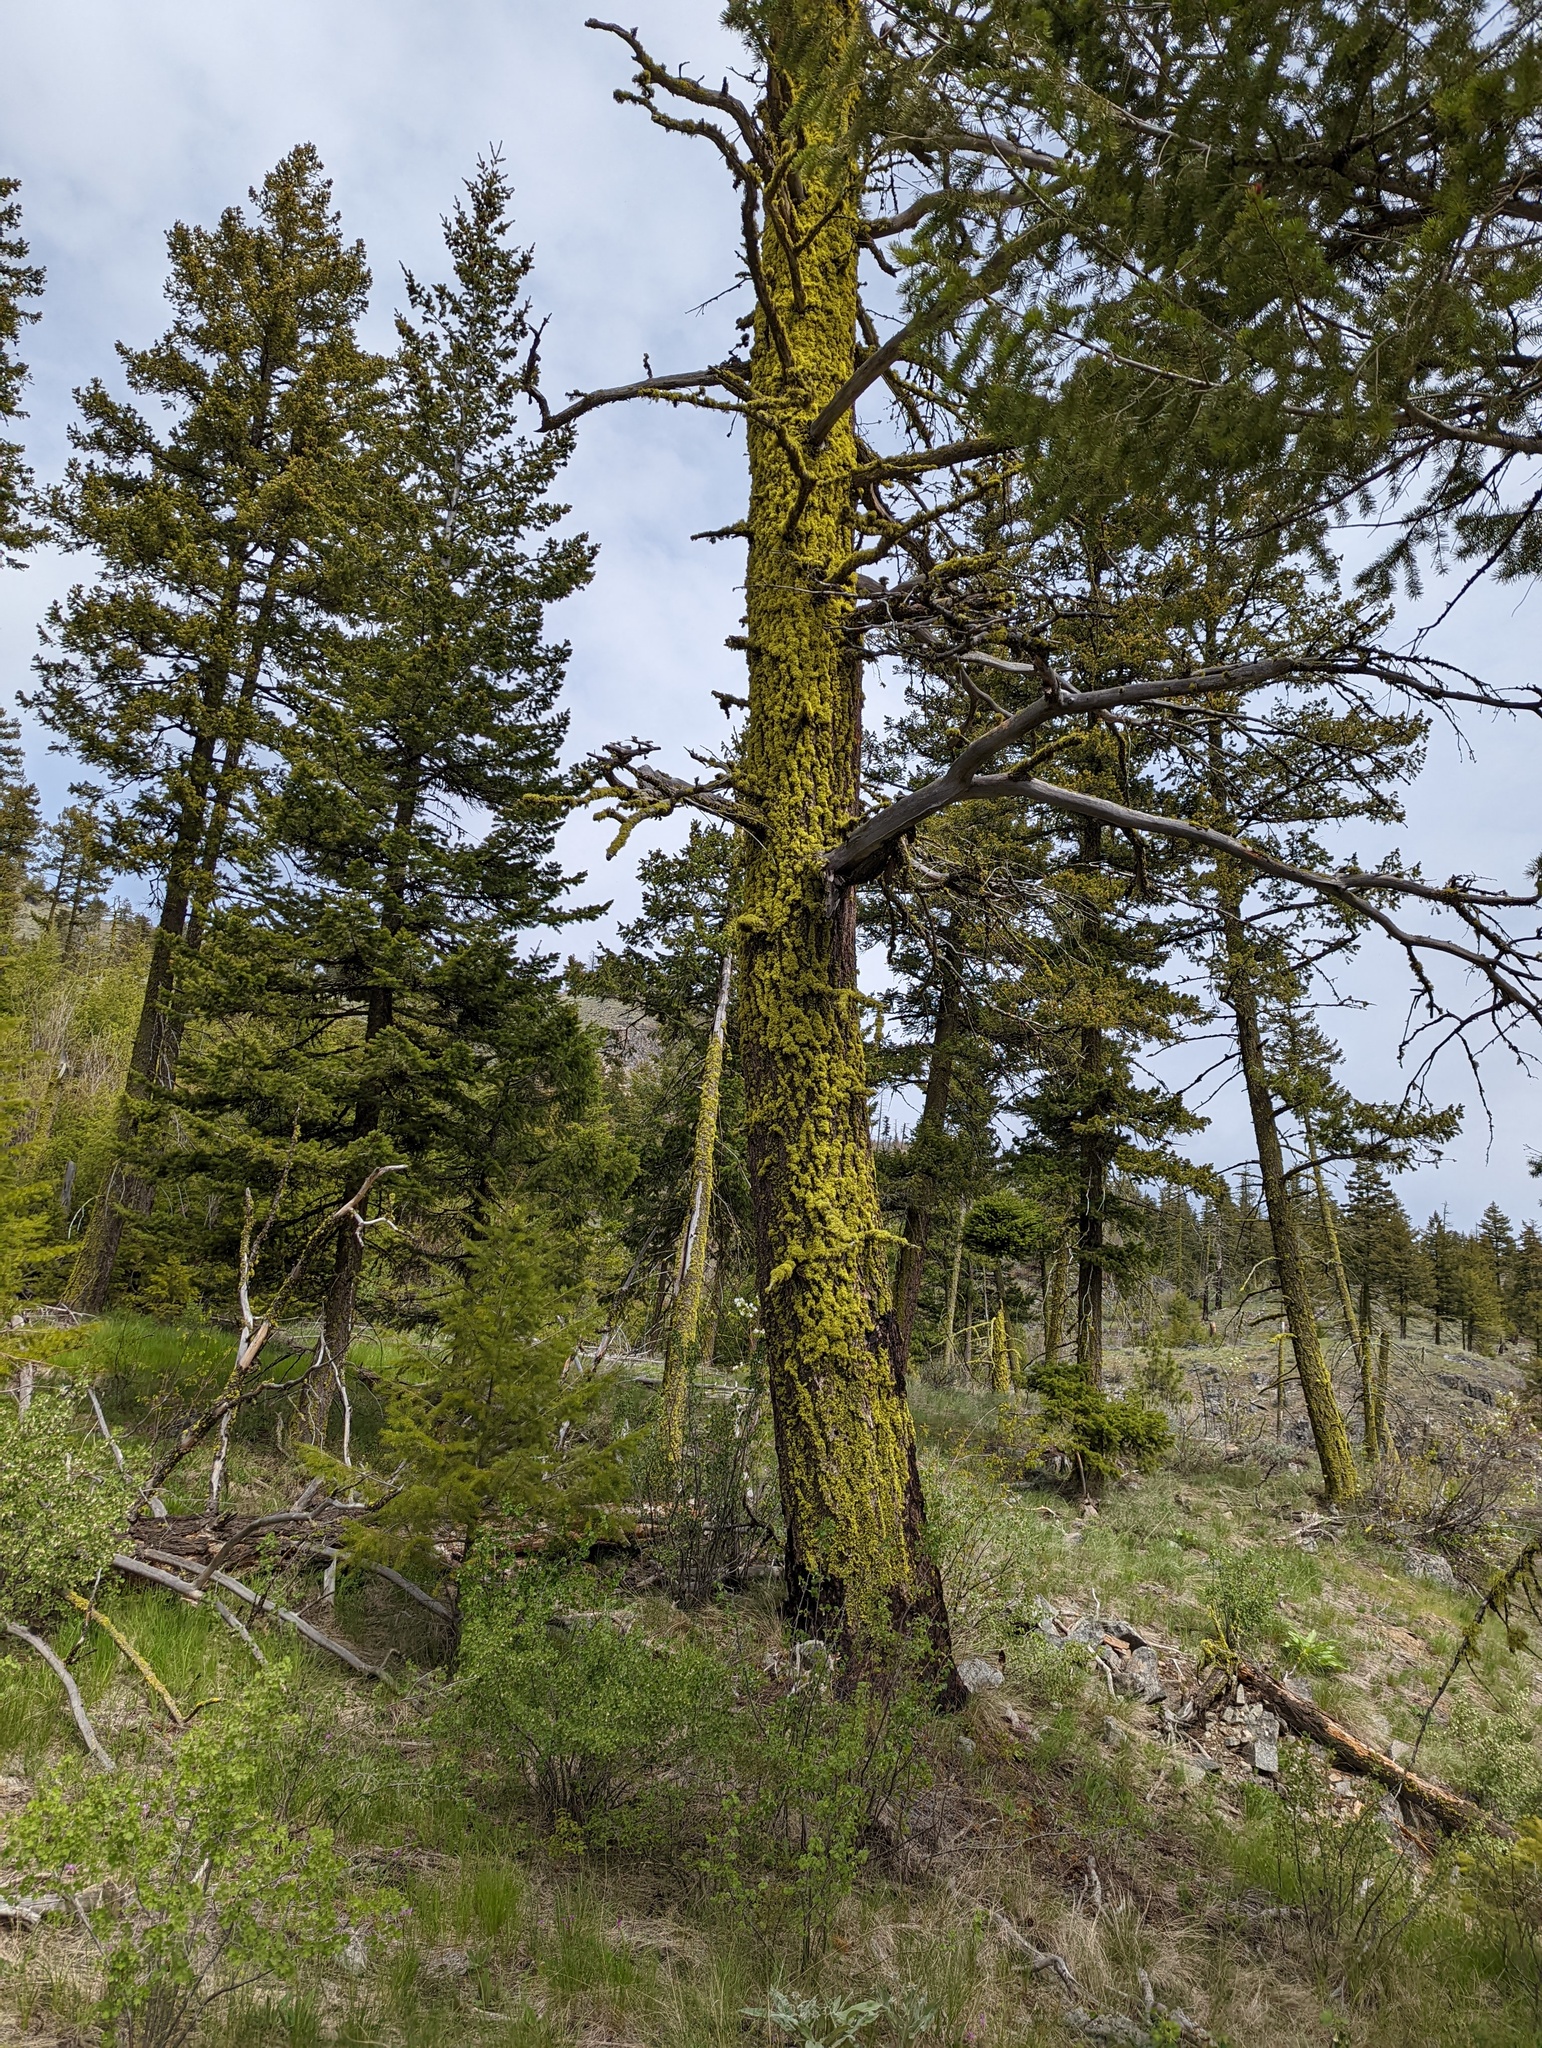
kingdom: Fungi
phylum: Ascomycota
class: Lecanoromycetes
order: Lecanorales
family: Parmeliaceae
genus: Letharia
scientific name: Letharia vulpina
